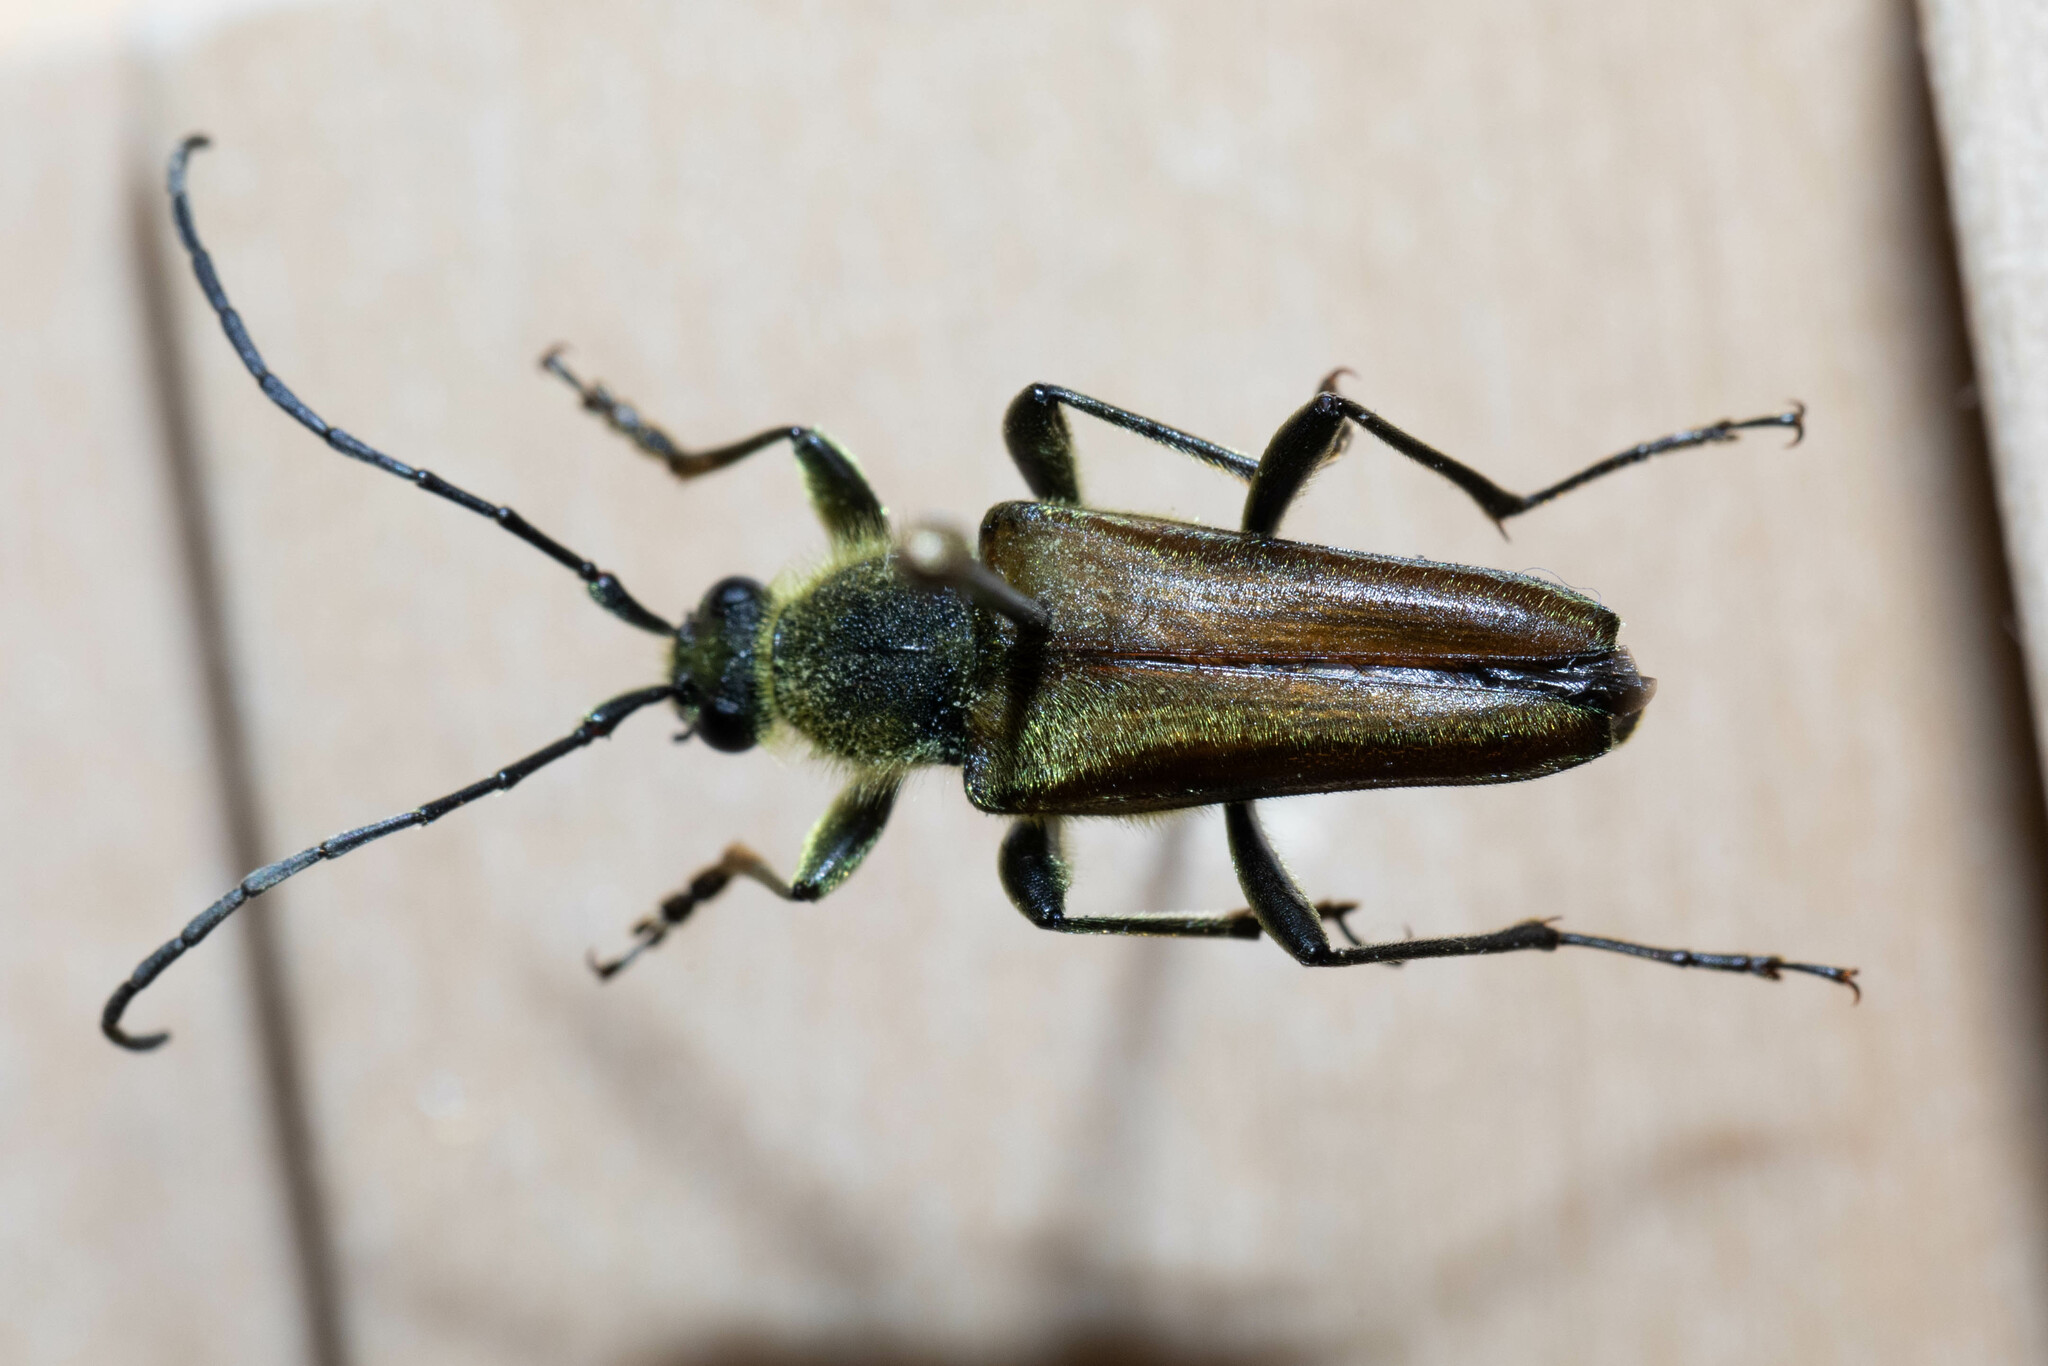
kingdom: Animalia
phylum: Arthropoda
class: Insecta
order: Coleoptera
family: Cerambycidae
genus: Cosmosalia
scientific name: Cosmosalia chrysocoma
